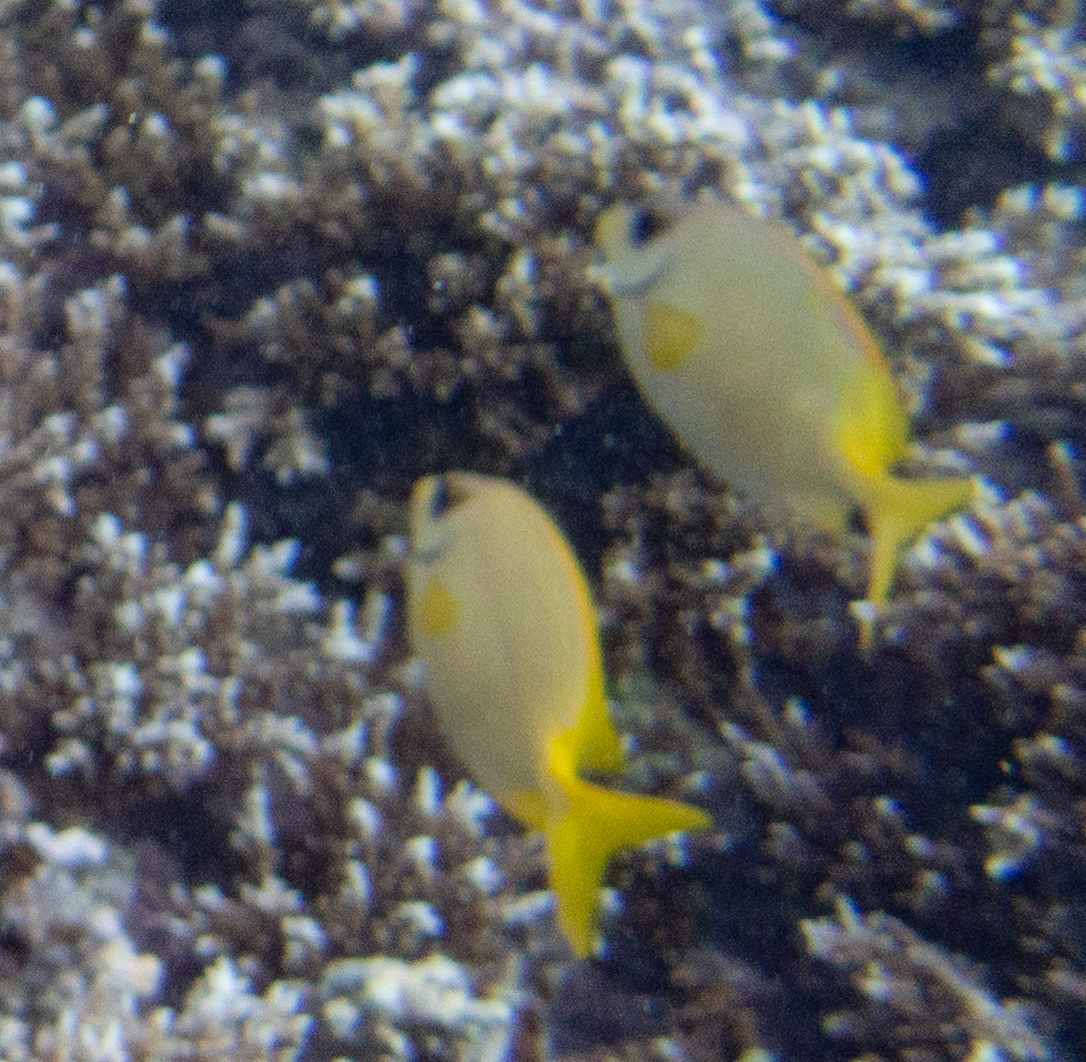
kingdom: Animalia
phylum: Chordata
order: Perciformes
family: Siganidae
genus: Siganus
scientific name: Siganus corallinus
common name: Coral rabbitfish
